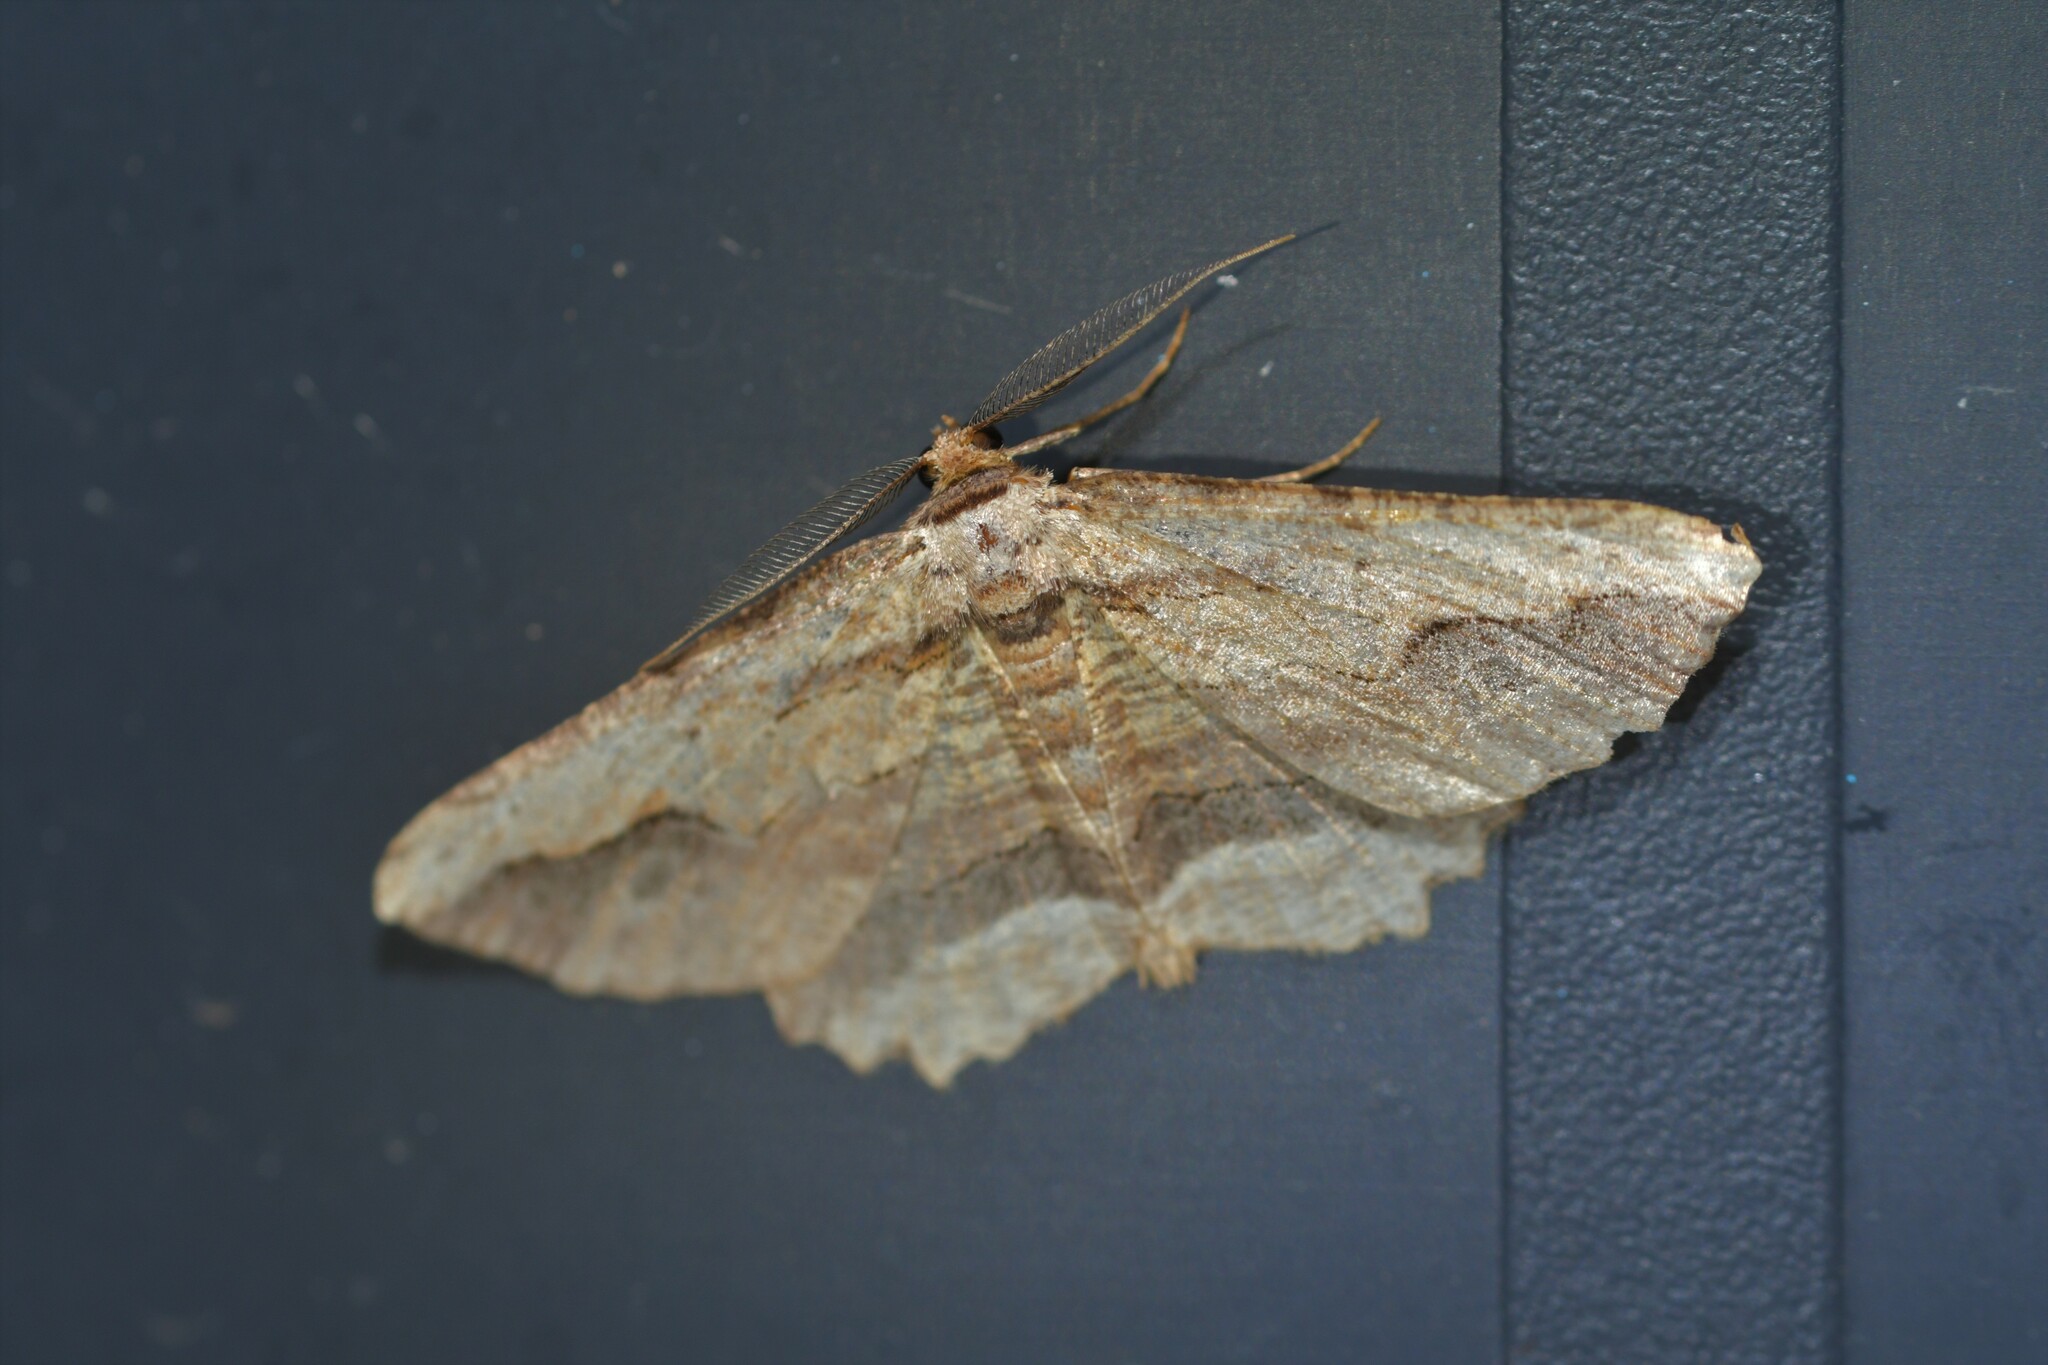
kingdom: Animalia
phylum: Arthropoda
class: Insecta
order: Lepidoptera
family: Geometridae
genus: Menophra
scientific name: Menophra abruptaria
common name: Waved umber
